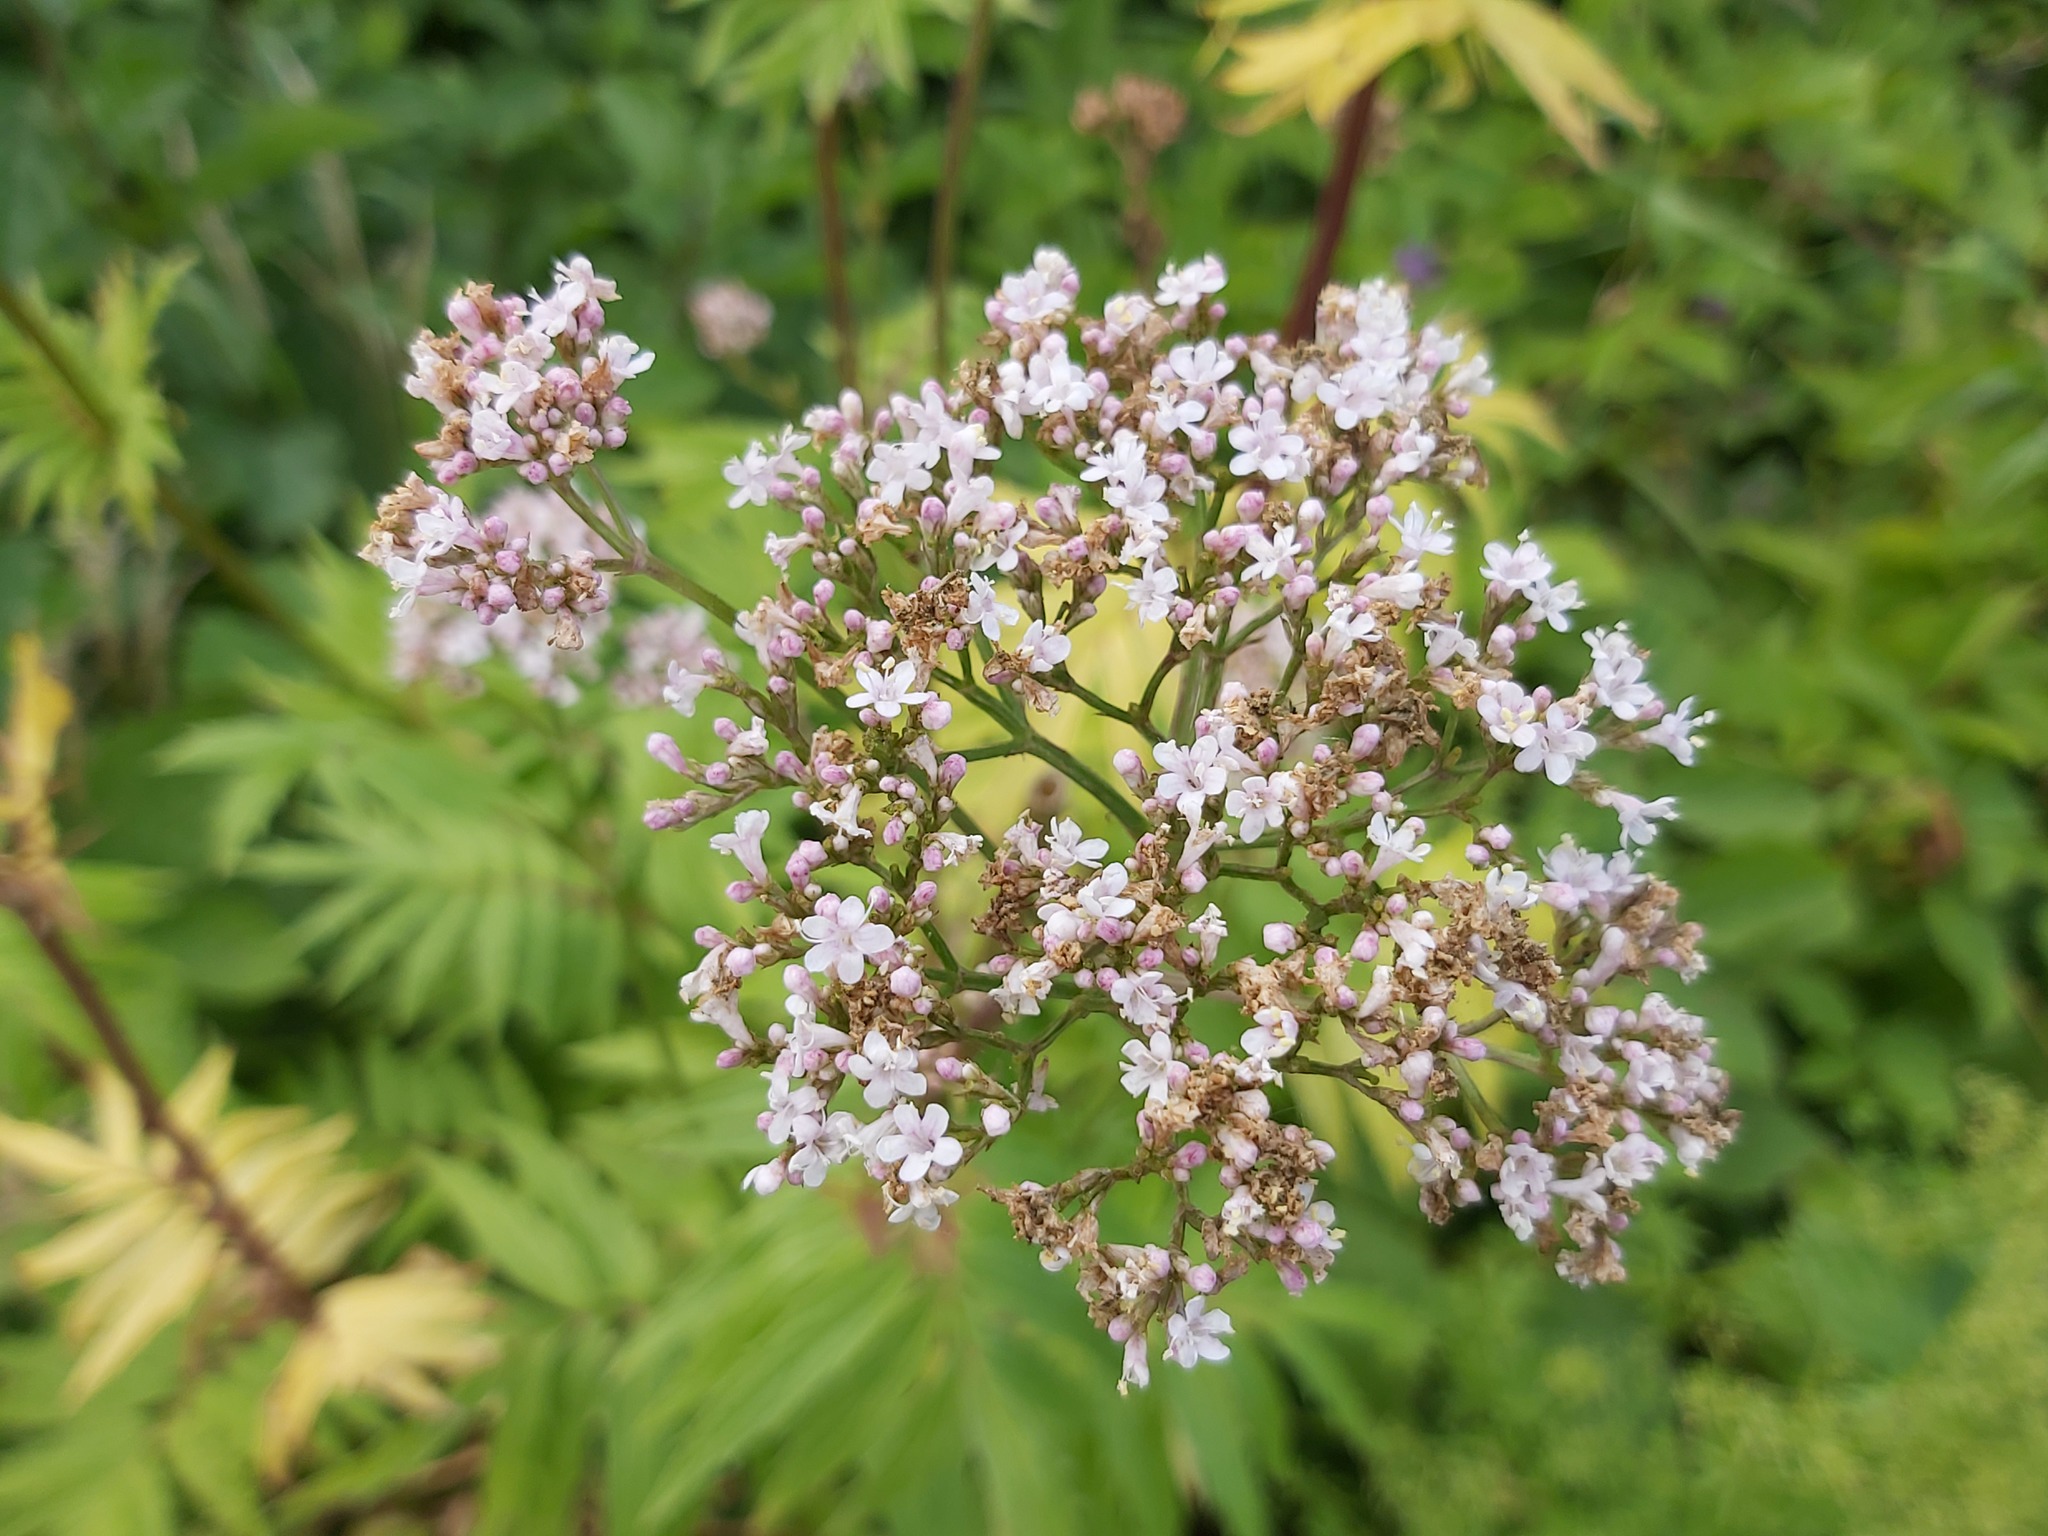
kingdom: Plantae
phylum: Tracheophyta
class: Magnoliopsida
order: Dipsacales
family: Caprifoliaceae
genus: Valeriana
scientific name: Valeriana officinalis
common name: Common valerian
